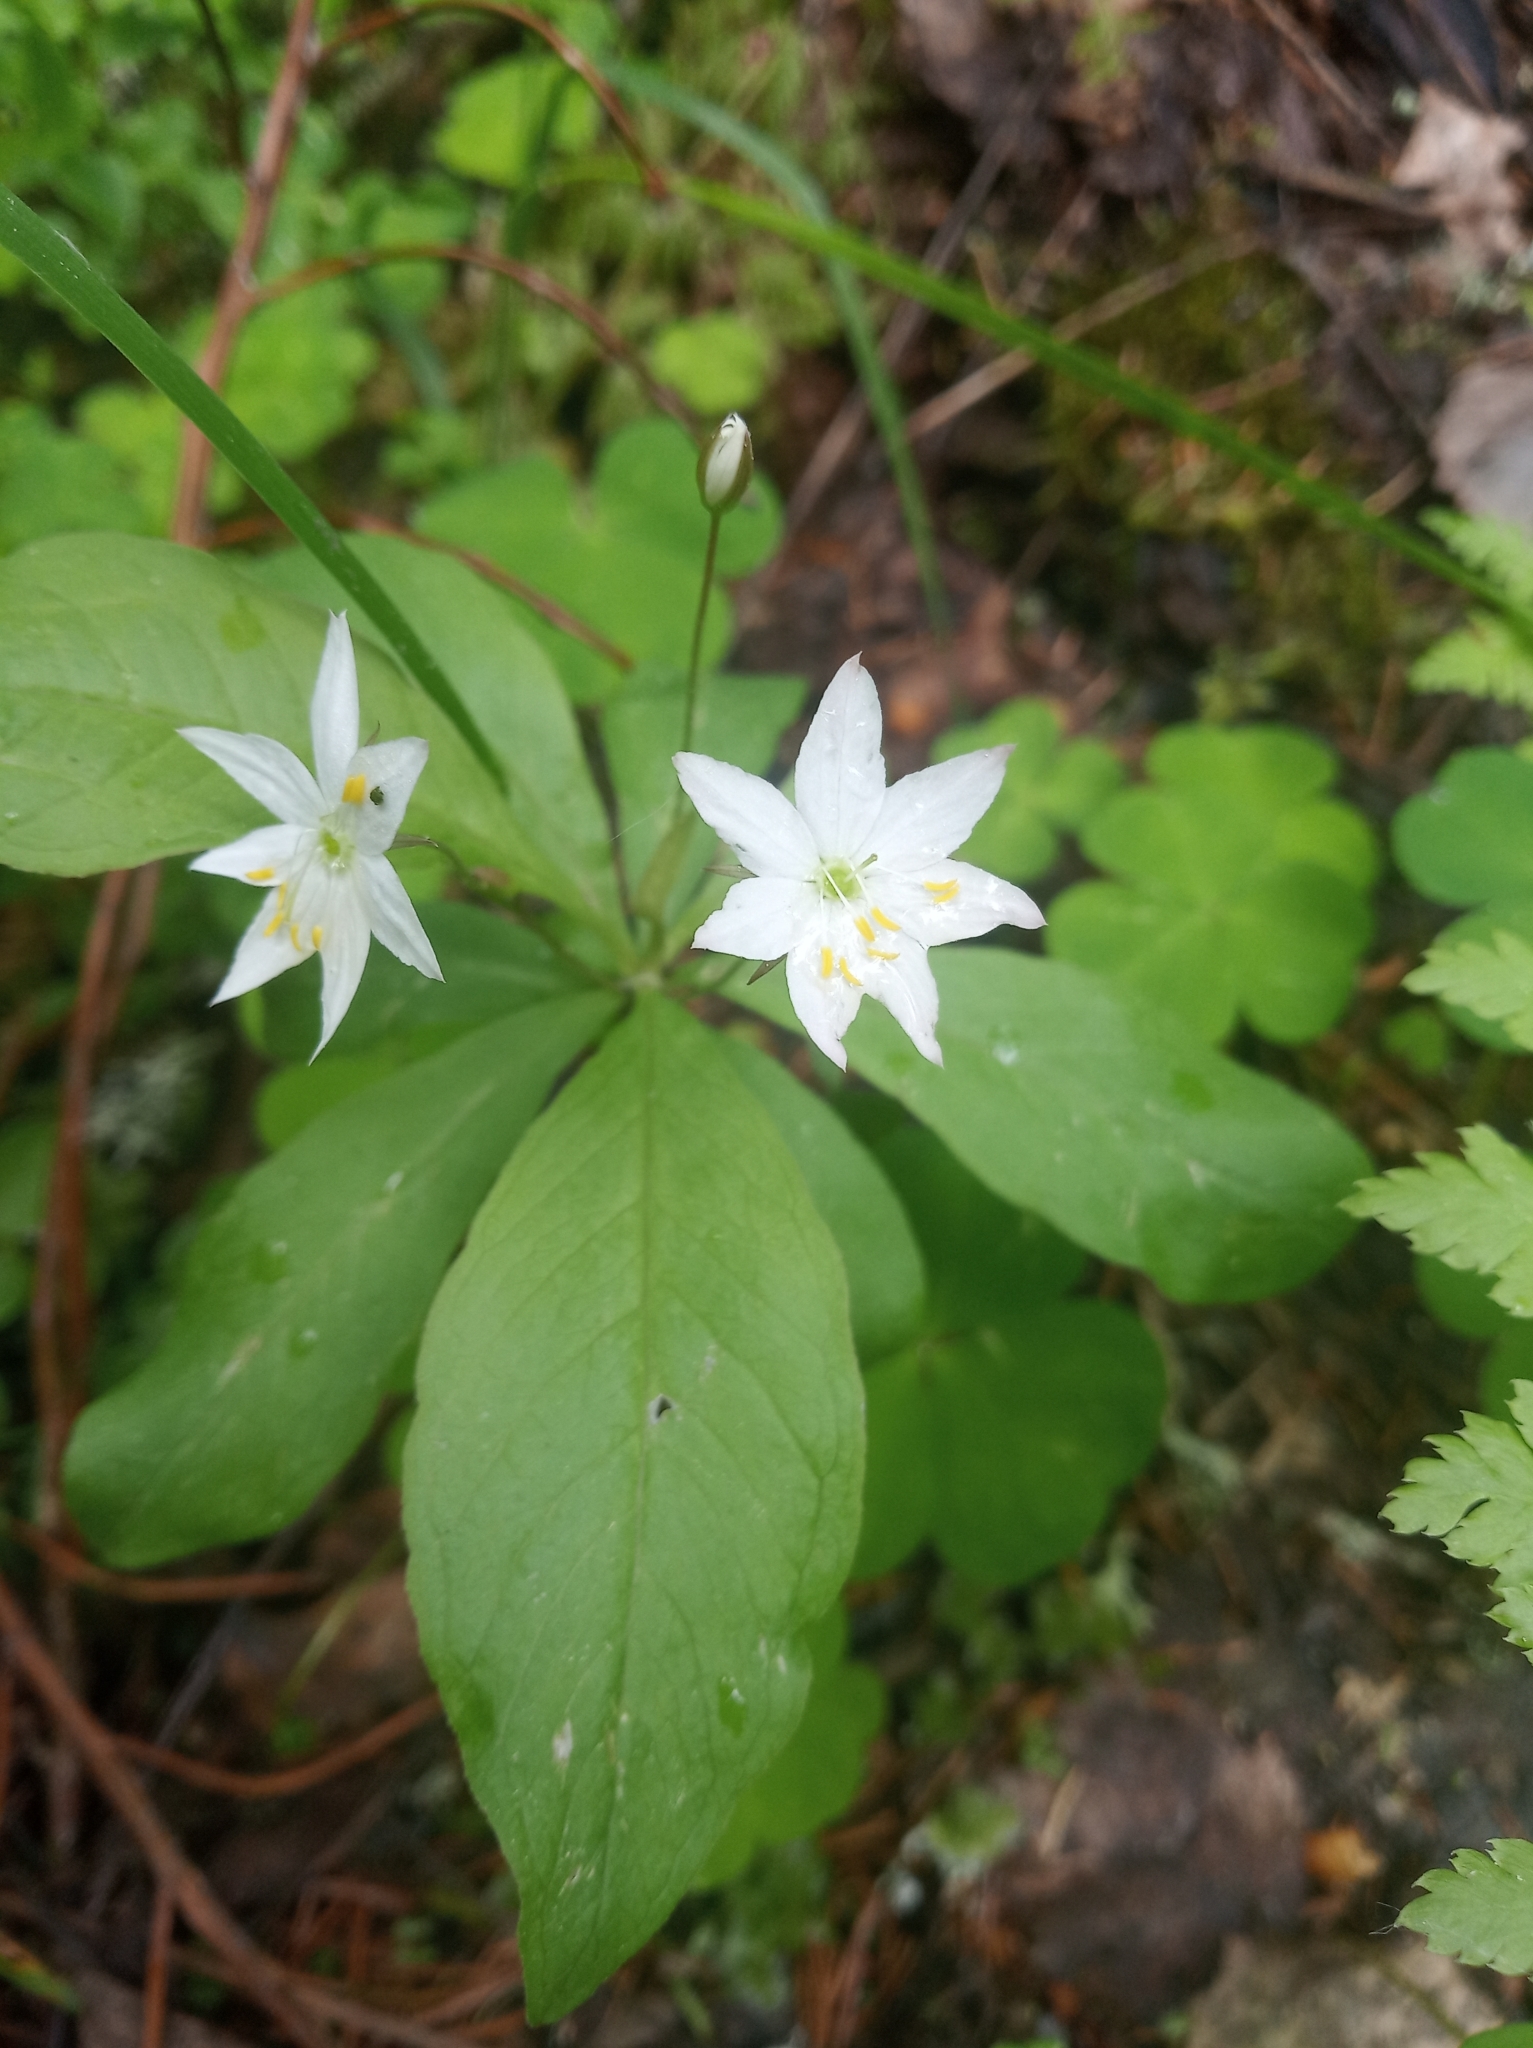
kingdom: Plantae
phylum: Tracheophyta
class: Magnoliopsida
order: Ericales
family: Primulaceae
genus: Lysimachia
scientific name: Lysimachia europaea
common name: Arctic starflower
